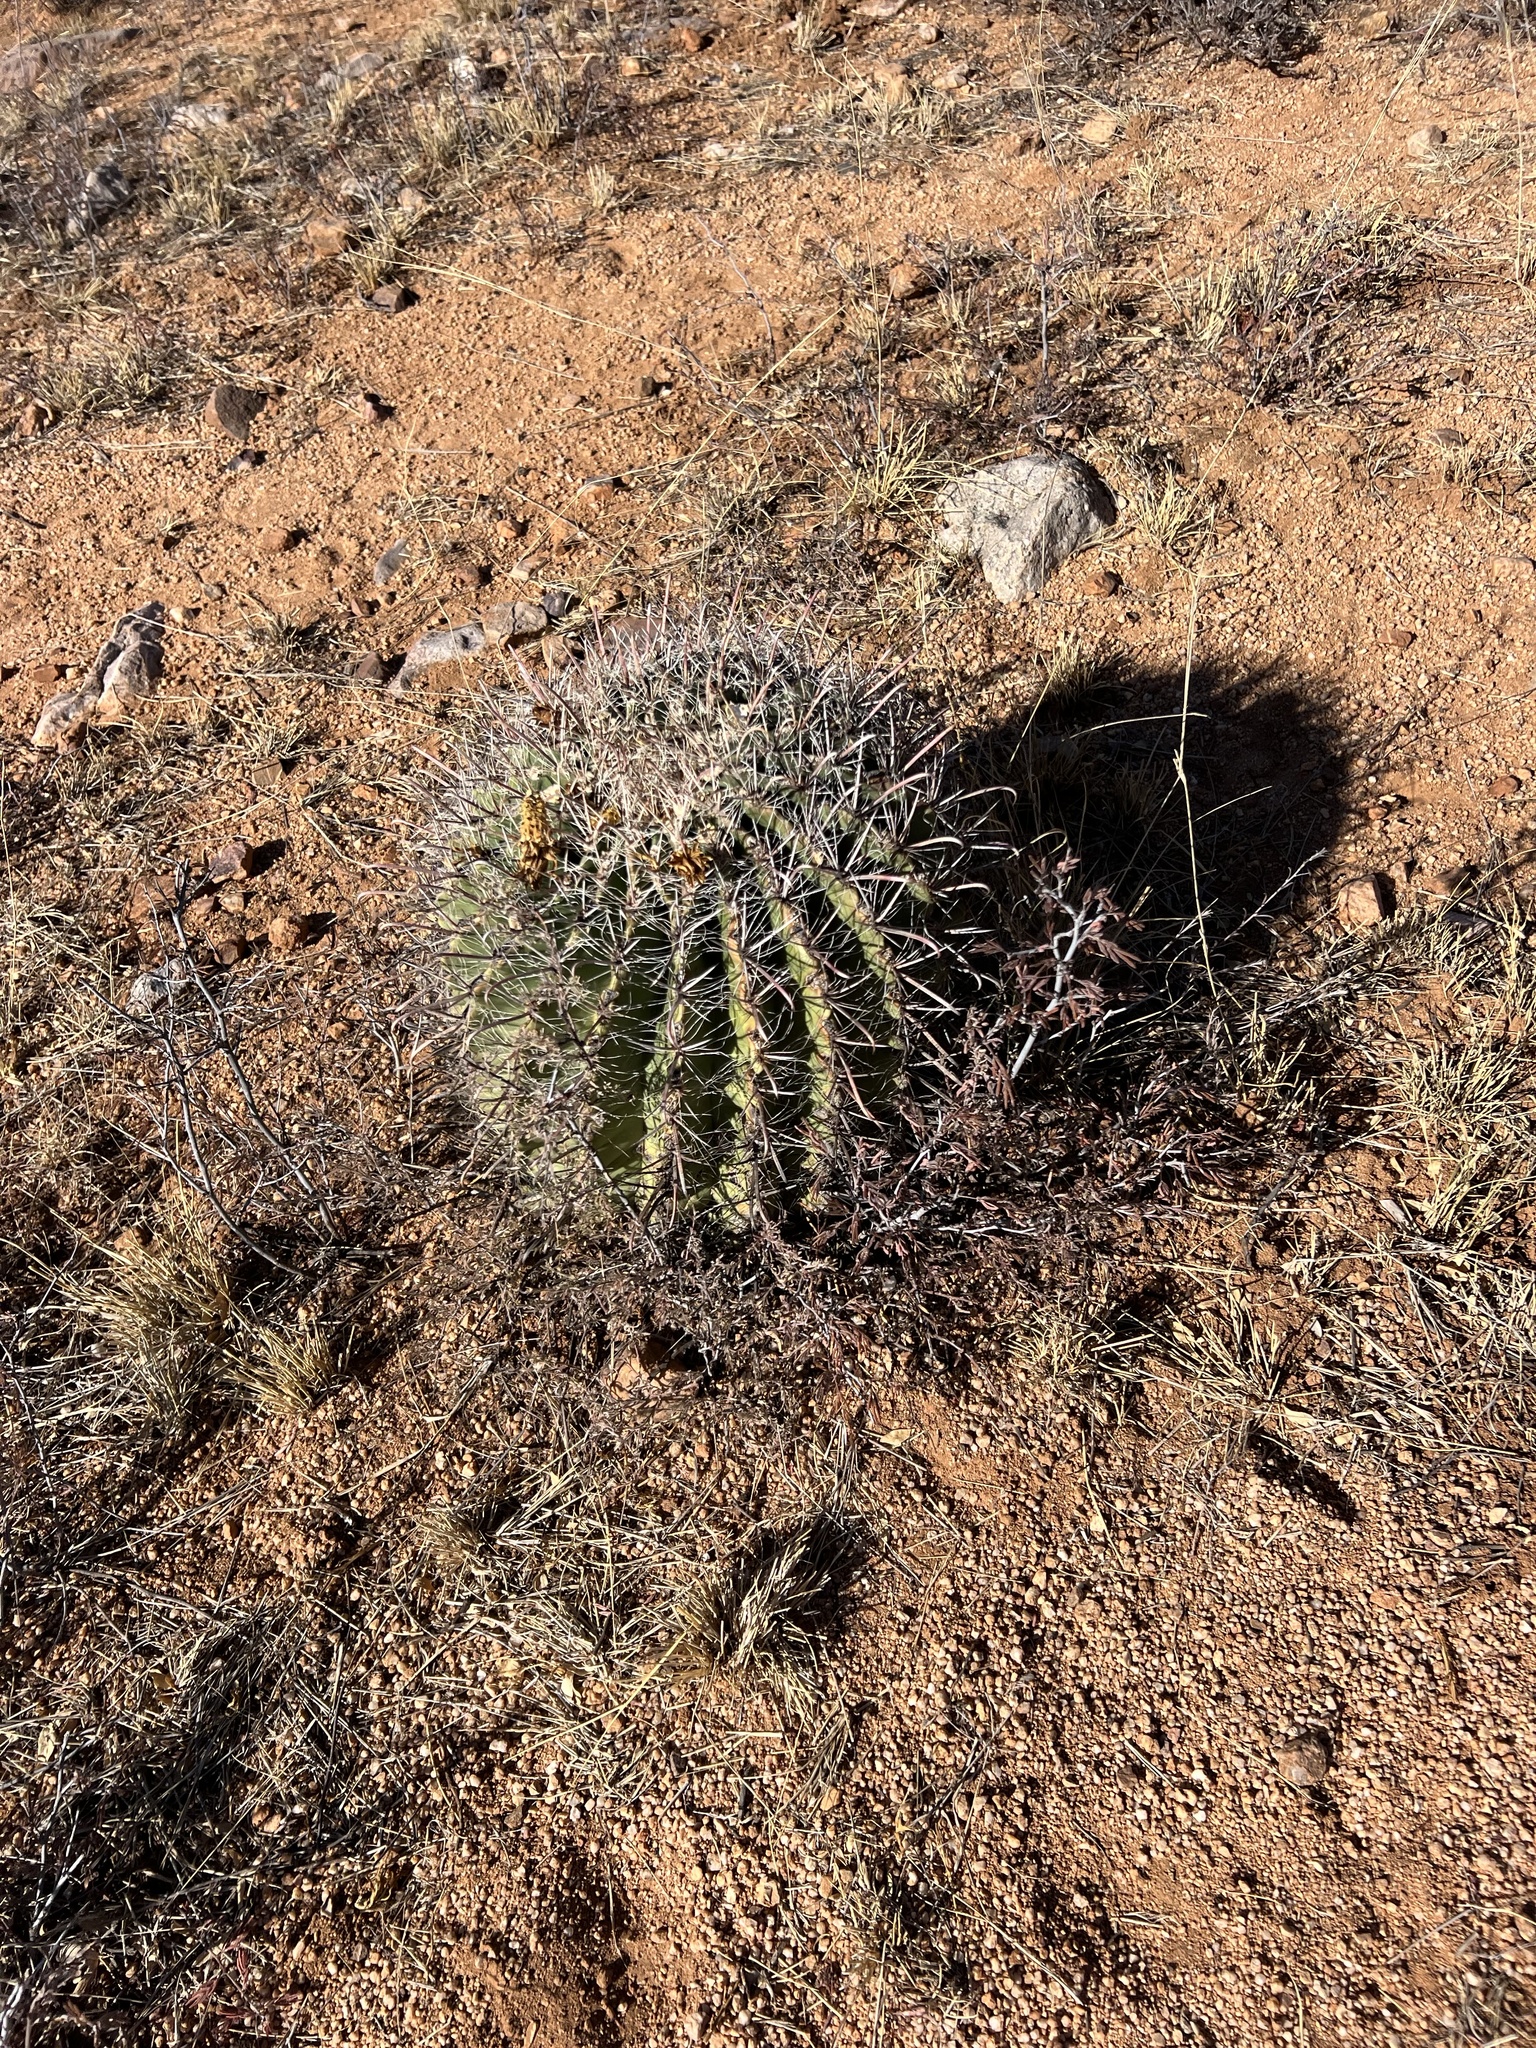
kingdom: Plantae
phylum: Tracheophyta
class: Magnoliopsida
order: Caryophyllales
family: Cactaceae
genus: Ferocactus
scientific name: Ferocactus wislizeni
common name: Candy barrel cactus
